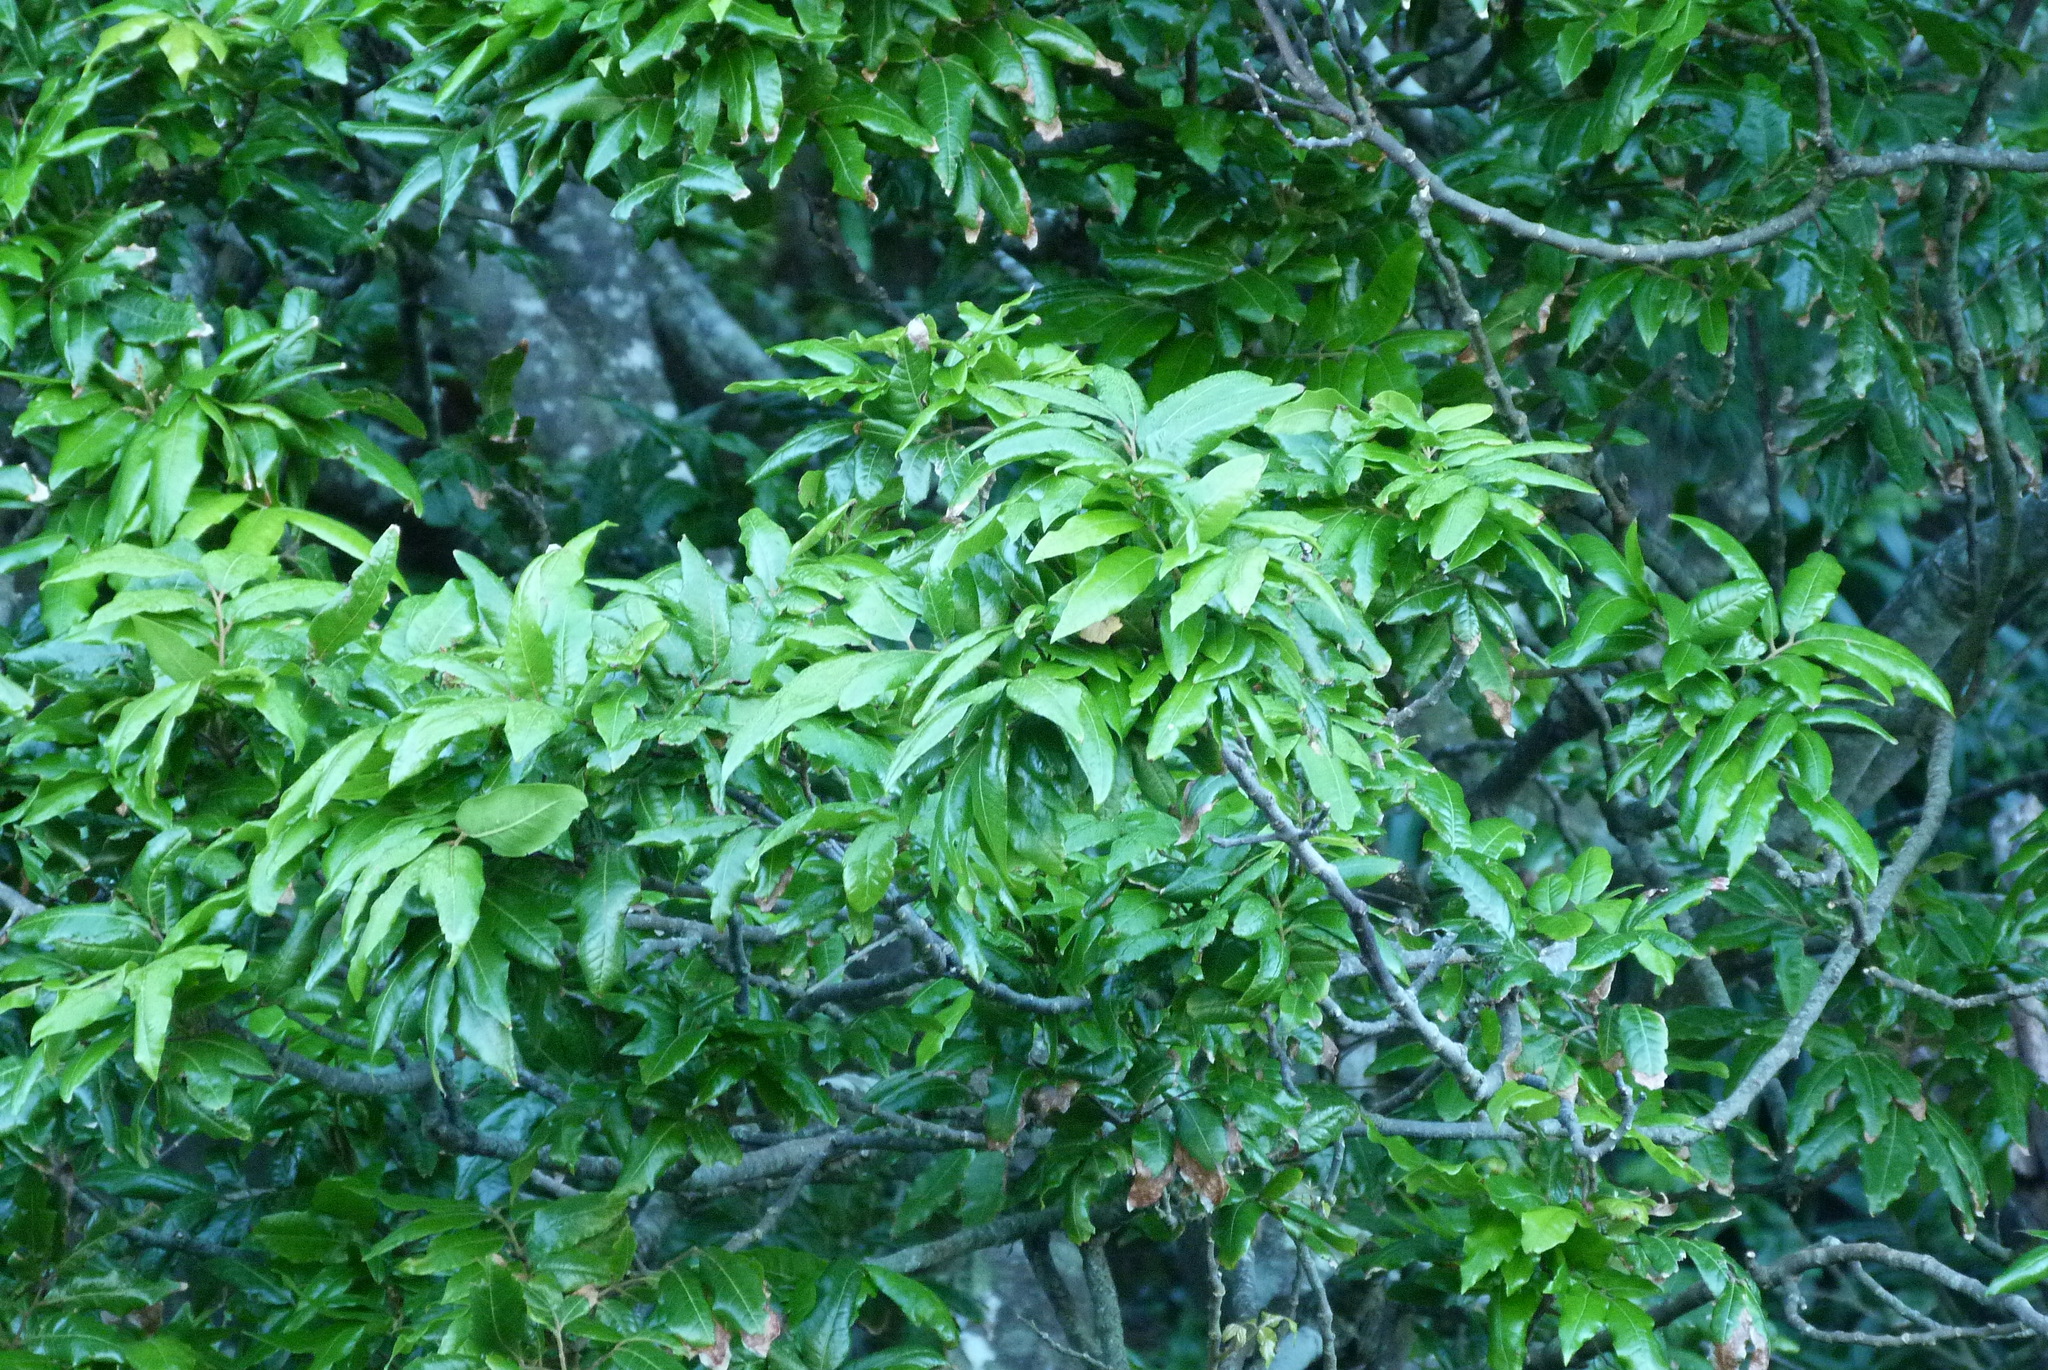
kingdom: Plantae
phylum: Tracheophyta
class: Magnoliopsida
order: Sapindales
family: Sapindaceae
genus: Alectryon
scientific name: Alectryon excelsus
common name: Three kings titoki
